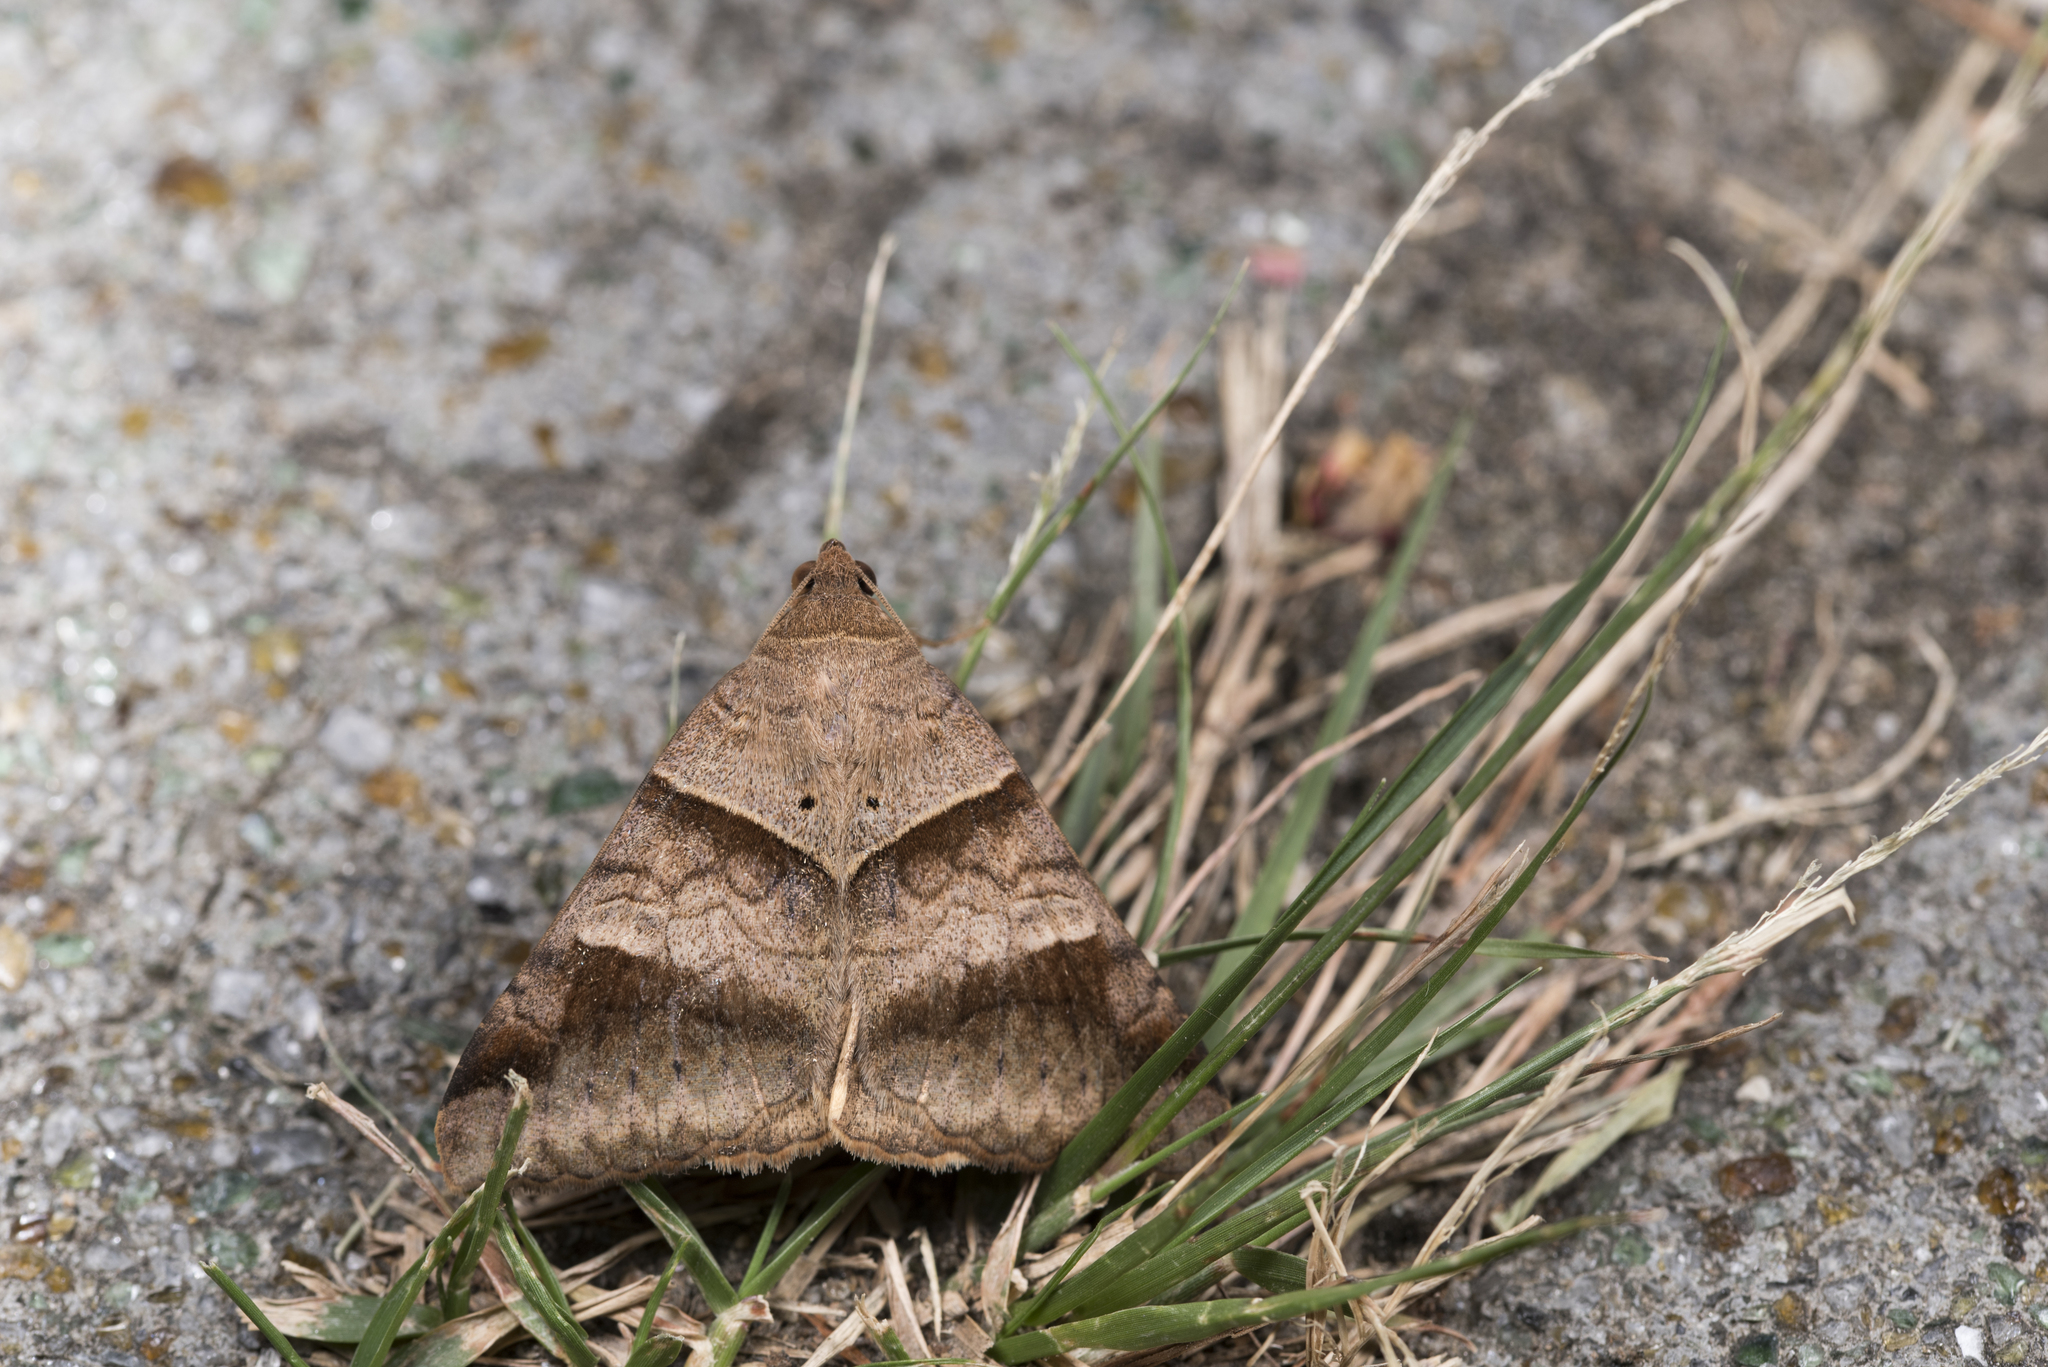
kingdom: Animalia
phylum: Arthropoda
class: Insecta
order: Lepidoptera
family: Erebidae
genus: Mocis
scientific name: Mocis undata
